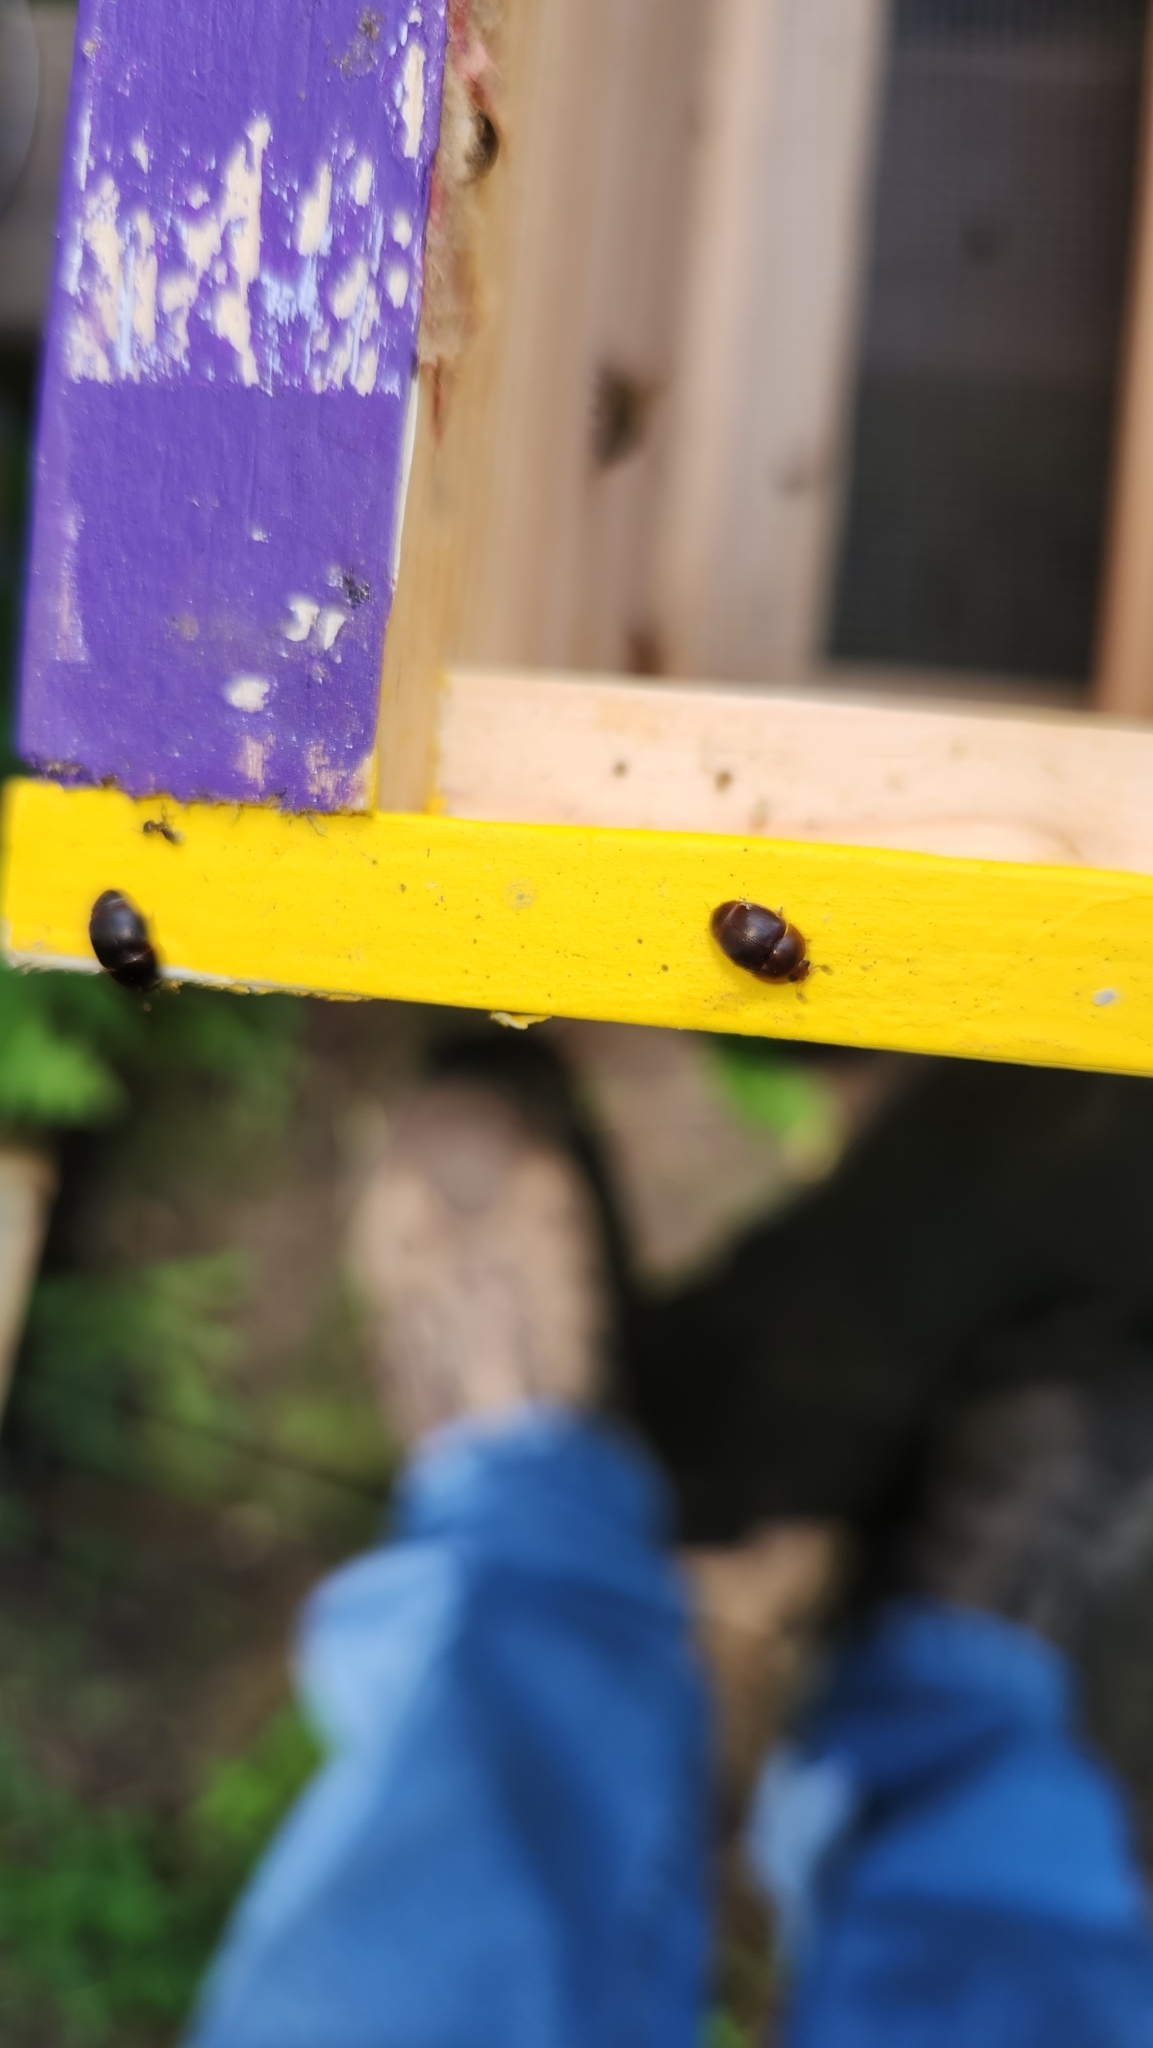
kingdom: Animalia
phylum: Arthropoda
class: Insecta
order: Coleoptera
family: Nitidulidae
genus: Aethina
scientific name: Aethina tumida
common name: Small hive beetle
